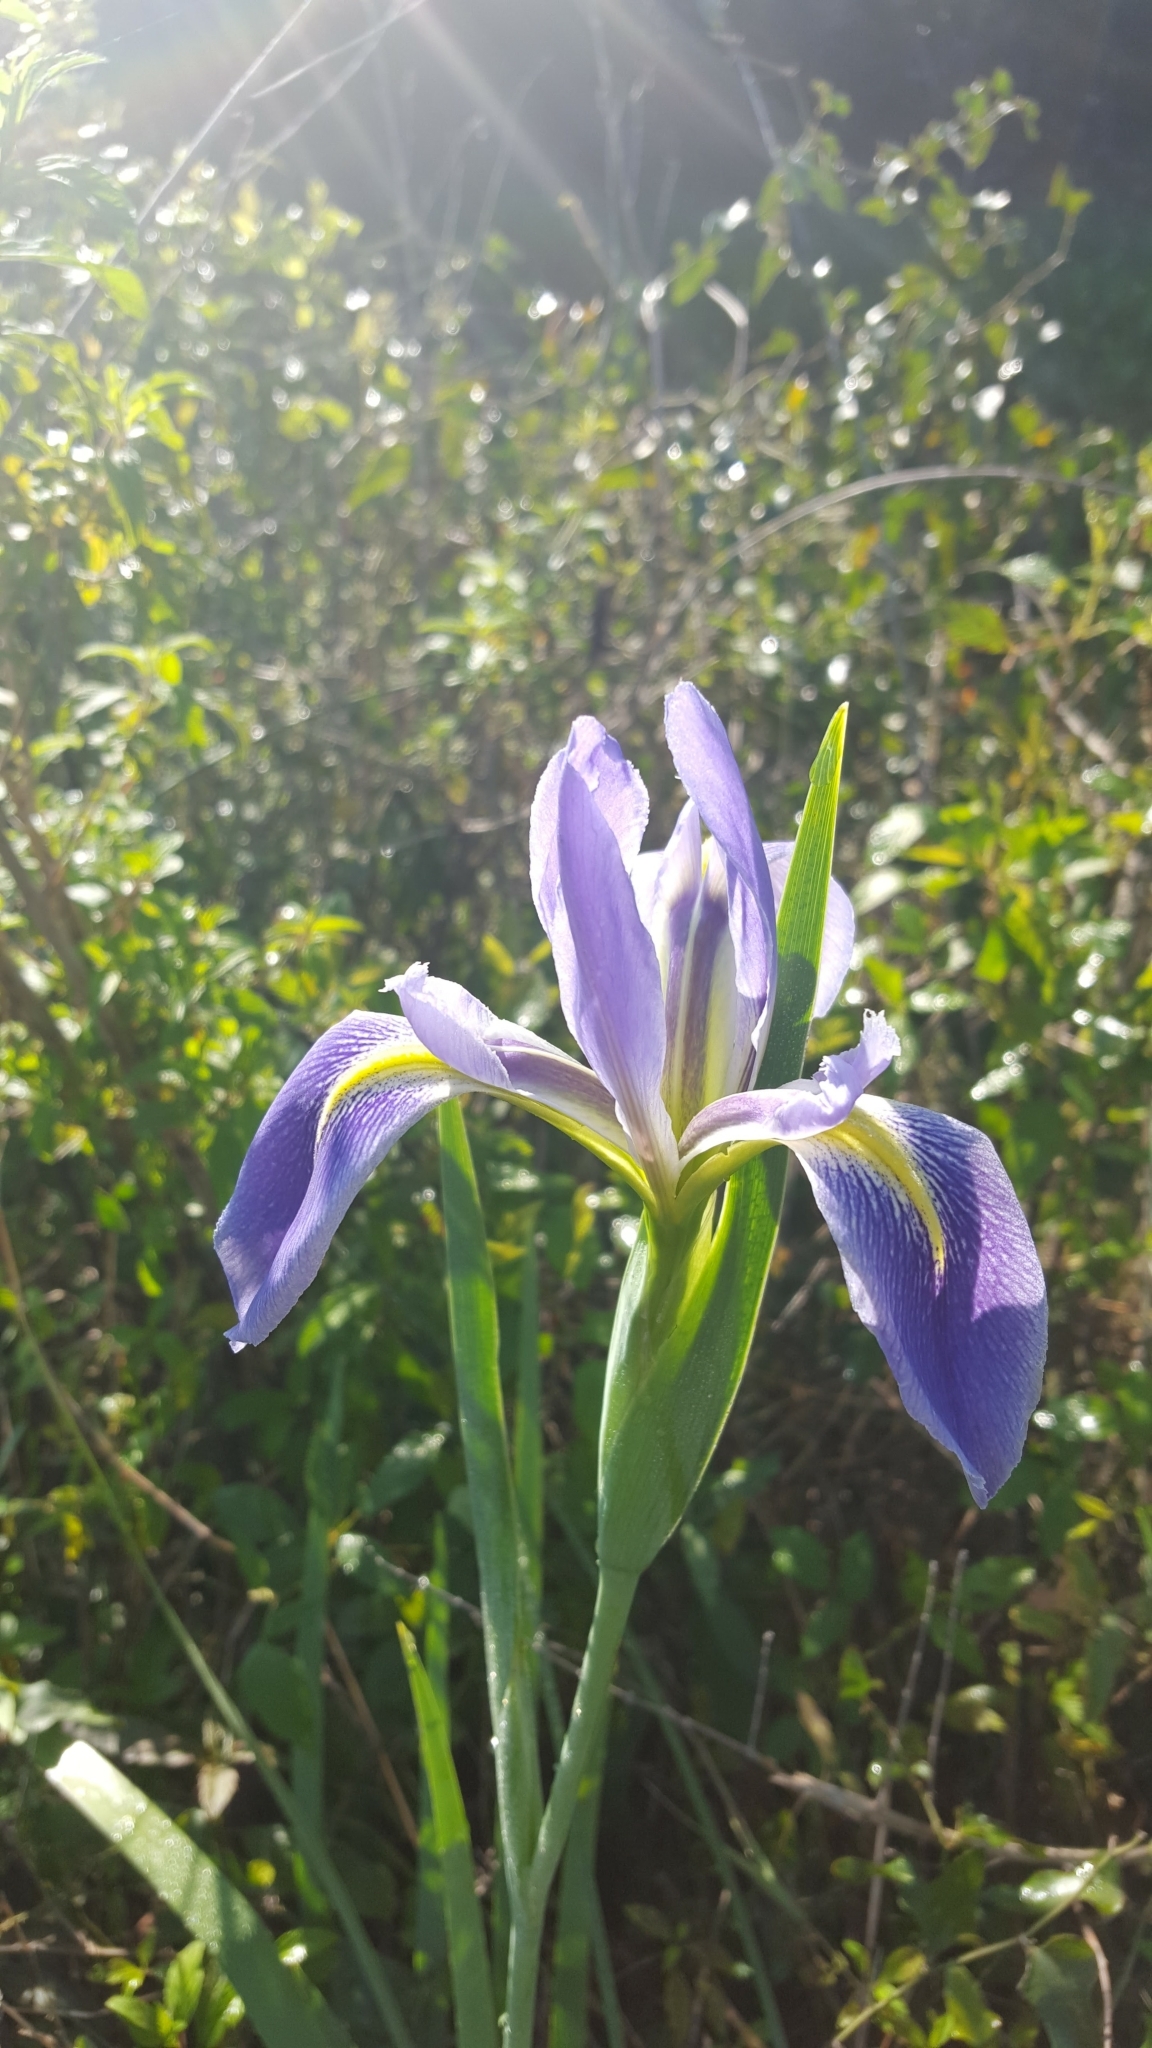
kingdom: Plantae
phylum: Tracheophyta
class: Liliopsida
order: Asparagales
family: Iridaceae
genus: Iris
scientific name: Iris savannarum
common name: Prairie iris
